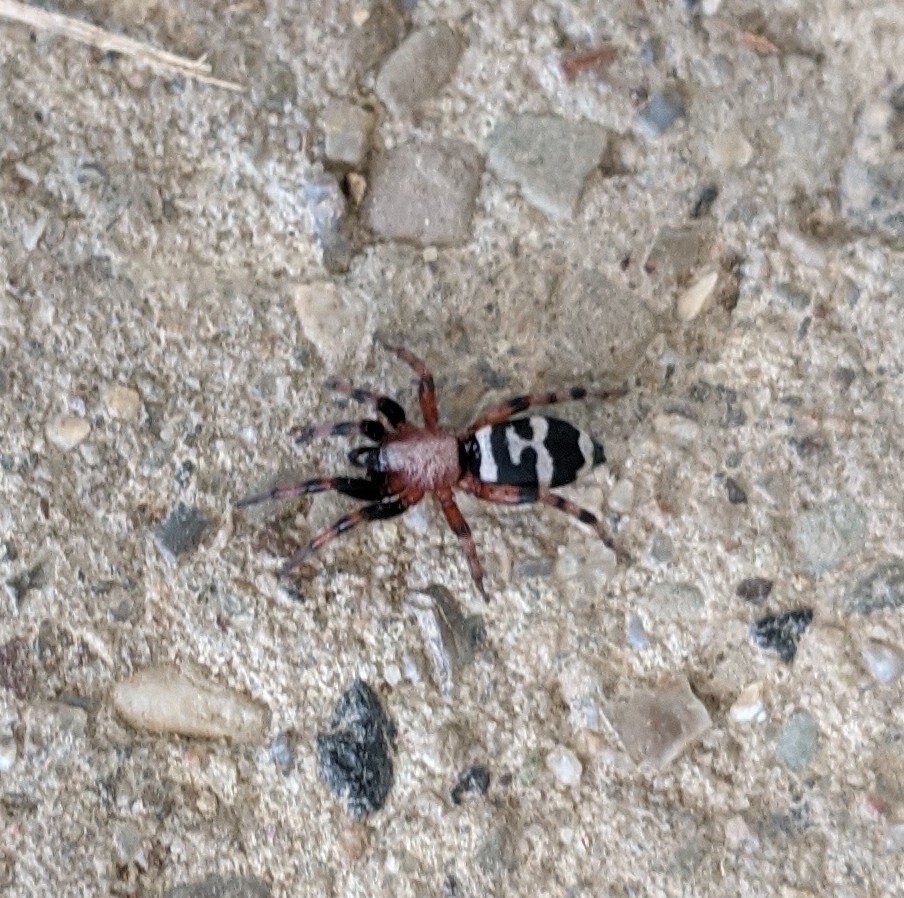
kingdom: Animalia
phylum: Arthropoda
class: Arachnida
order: Araneae
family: Gnaphosidae
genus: Sergiolus
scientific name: Sergiolus capulatus
